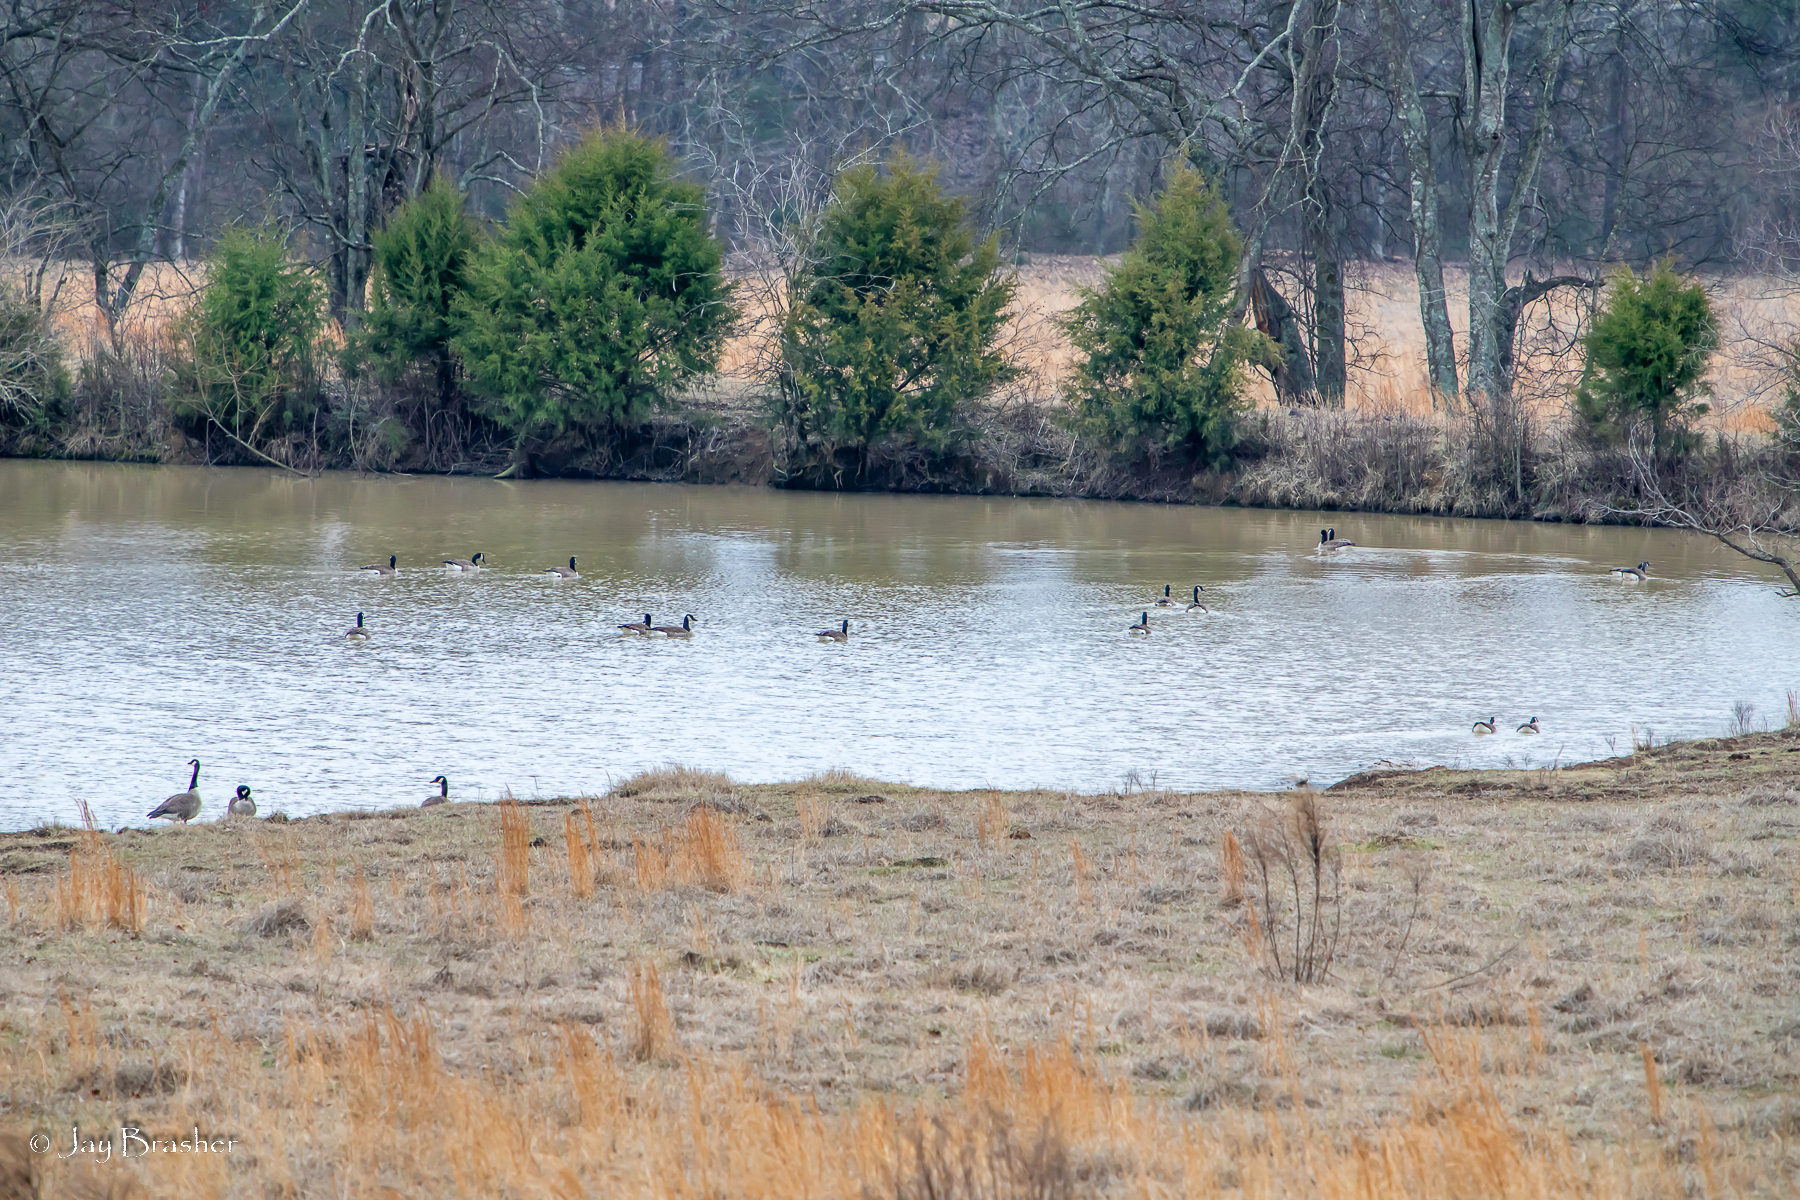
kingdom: Animalia
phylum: Chordata
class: Aves
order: Anseriformes
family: Anatidae
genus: Branta
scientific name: Branta canadensis
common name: Canada goose
